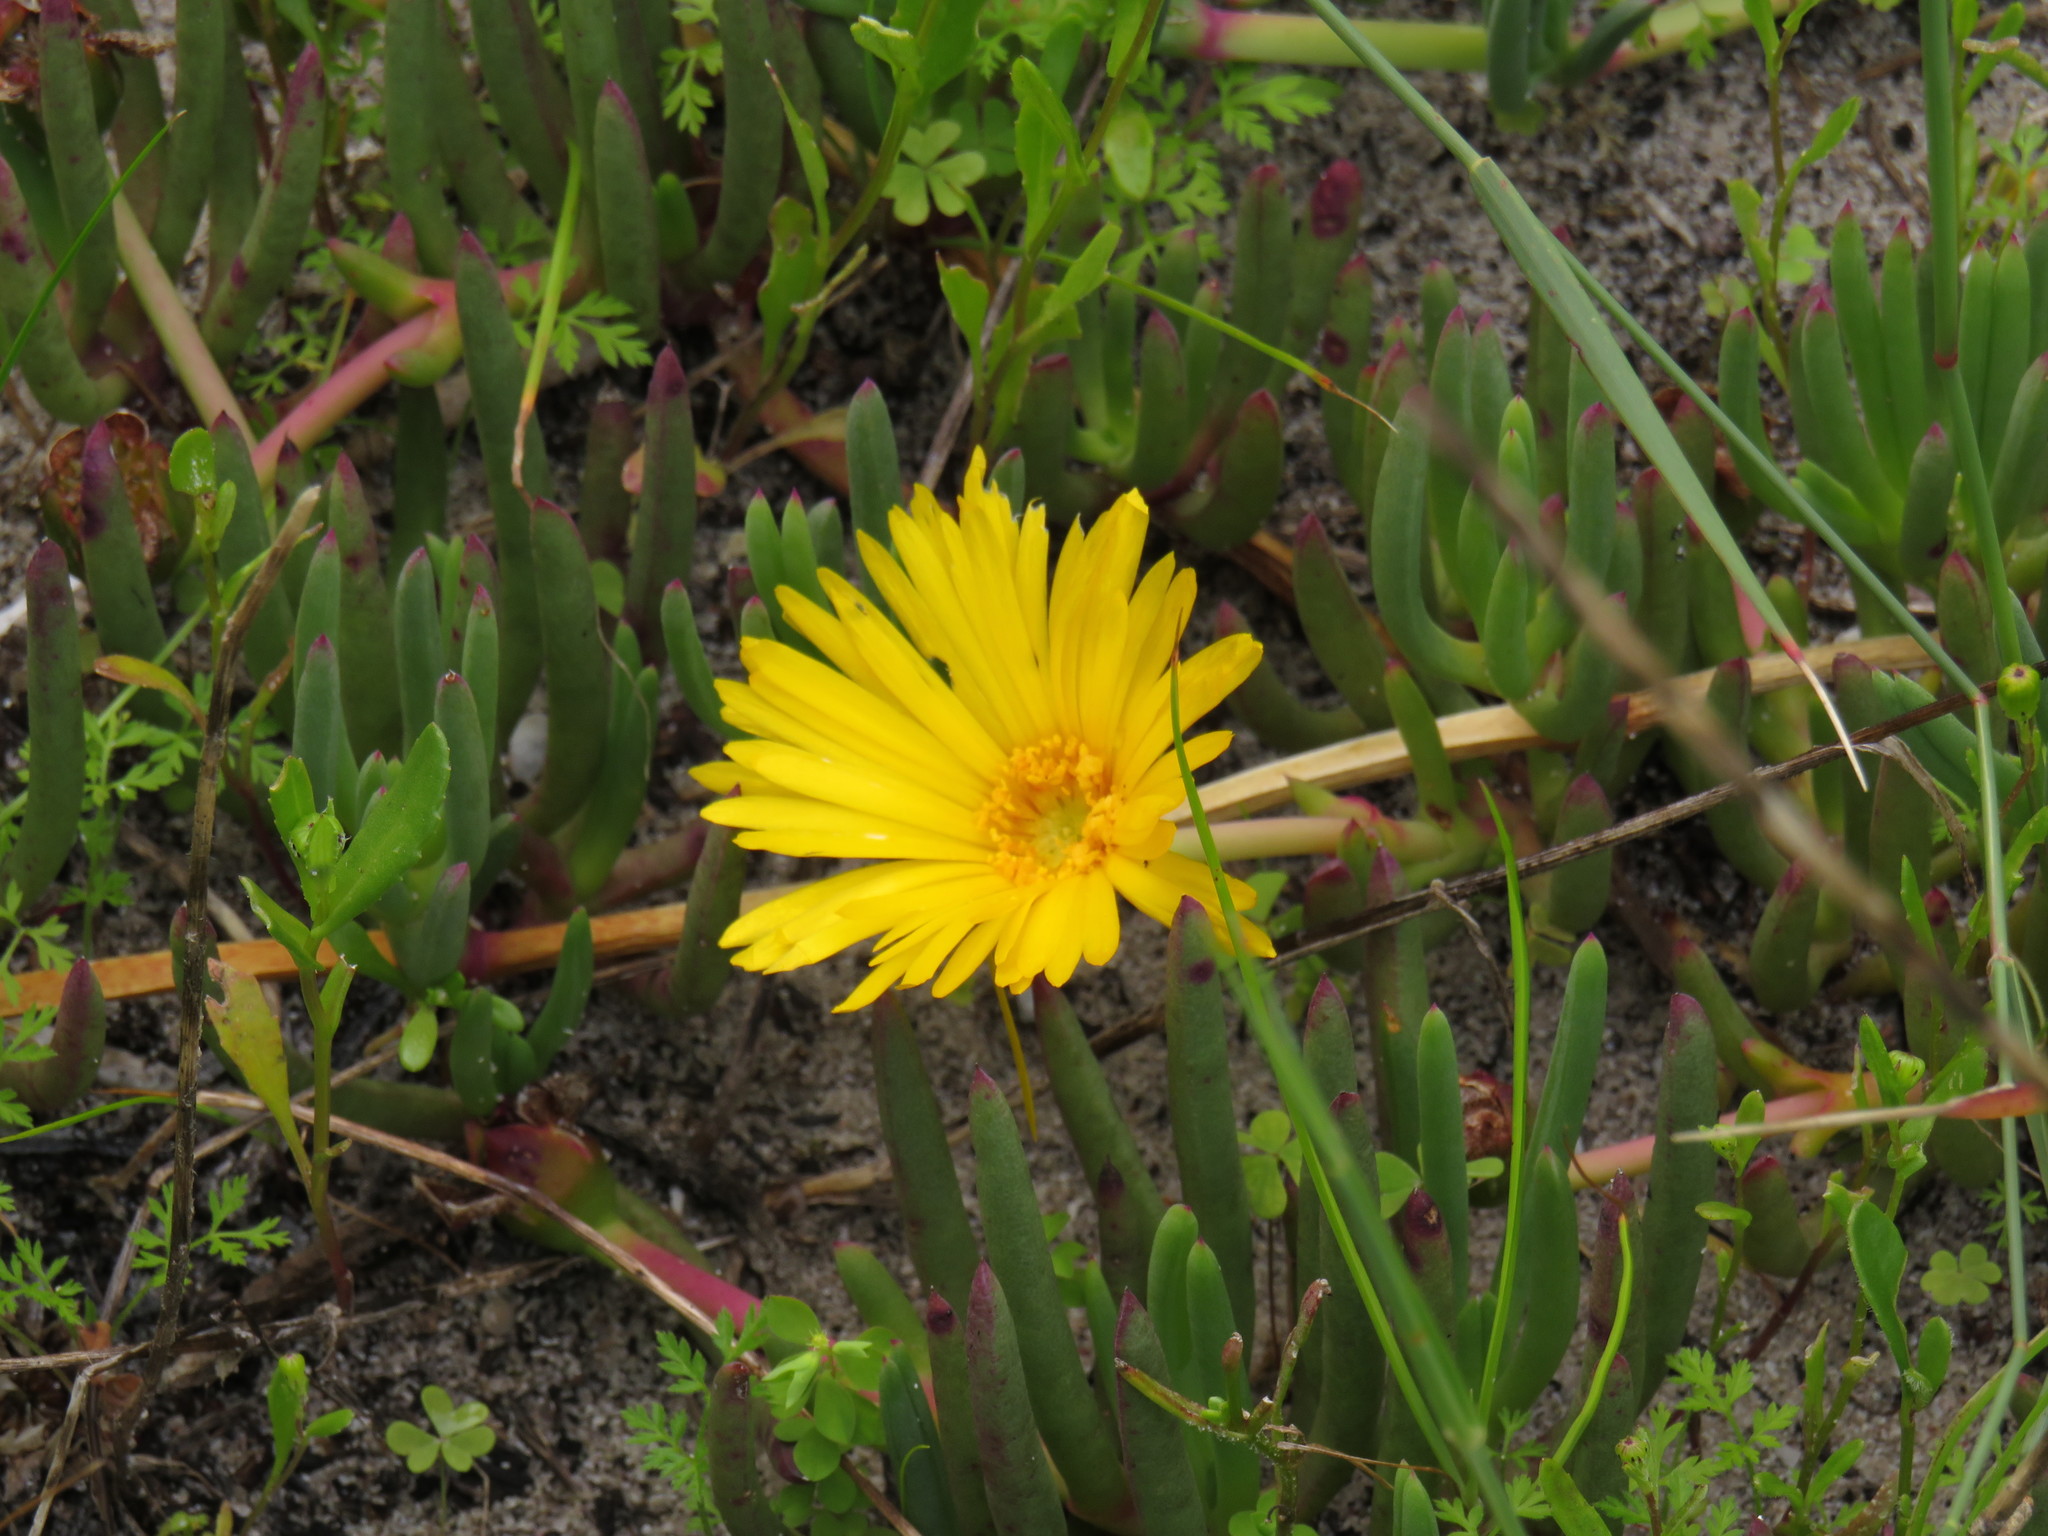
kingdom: Plantae
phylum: Tracheophyta
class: Magnoliopsida
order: Caryophyllales
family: Aizoaceae
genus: Jordaaniella
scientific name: Jordaaniella dubia
